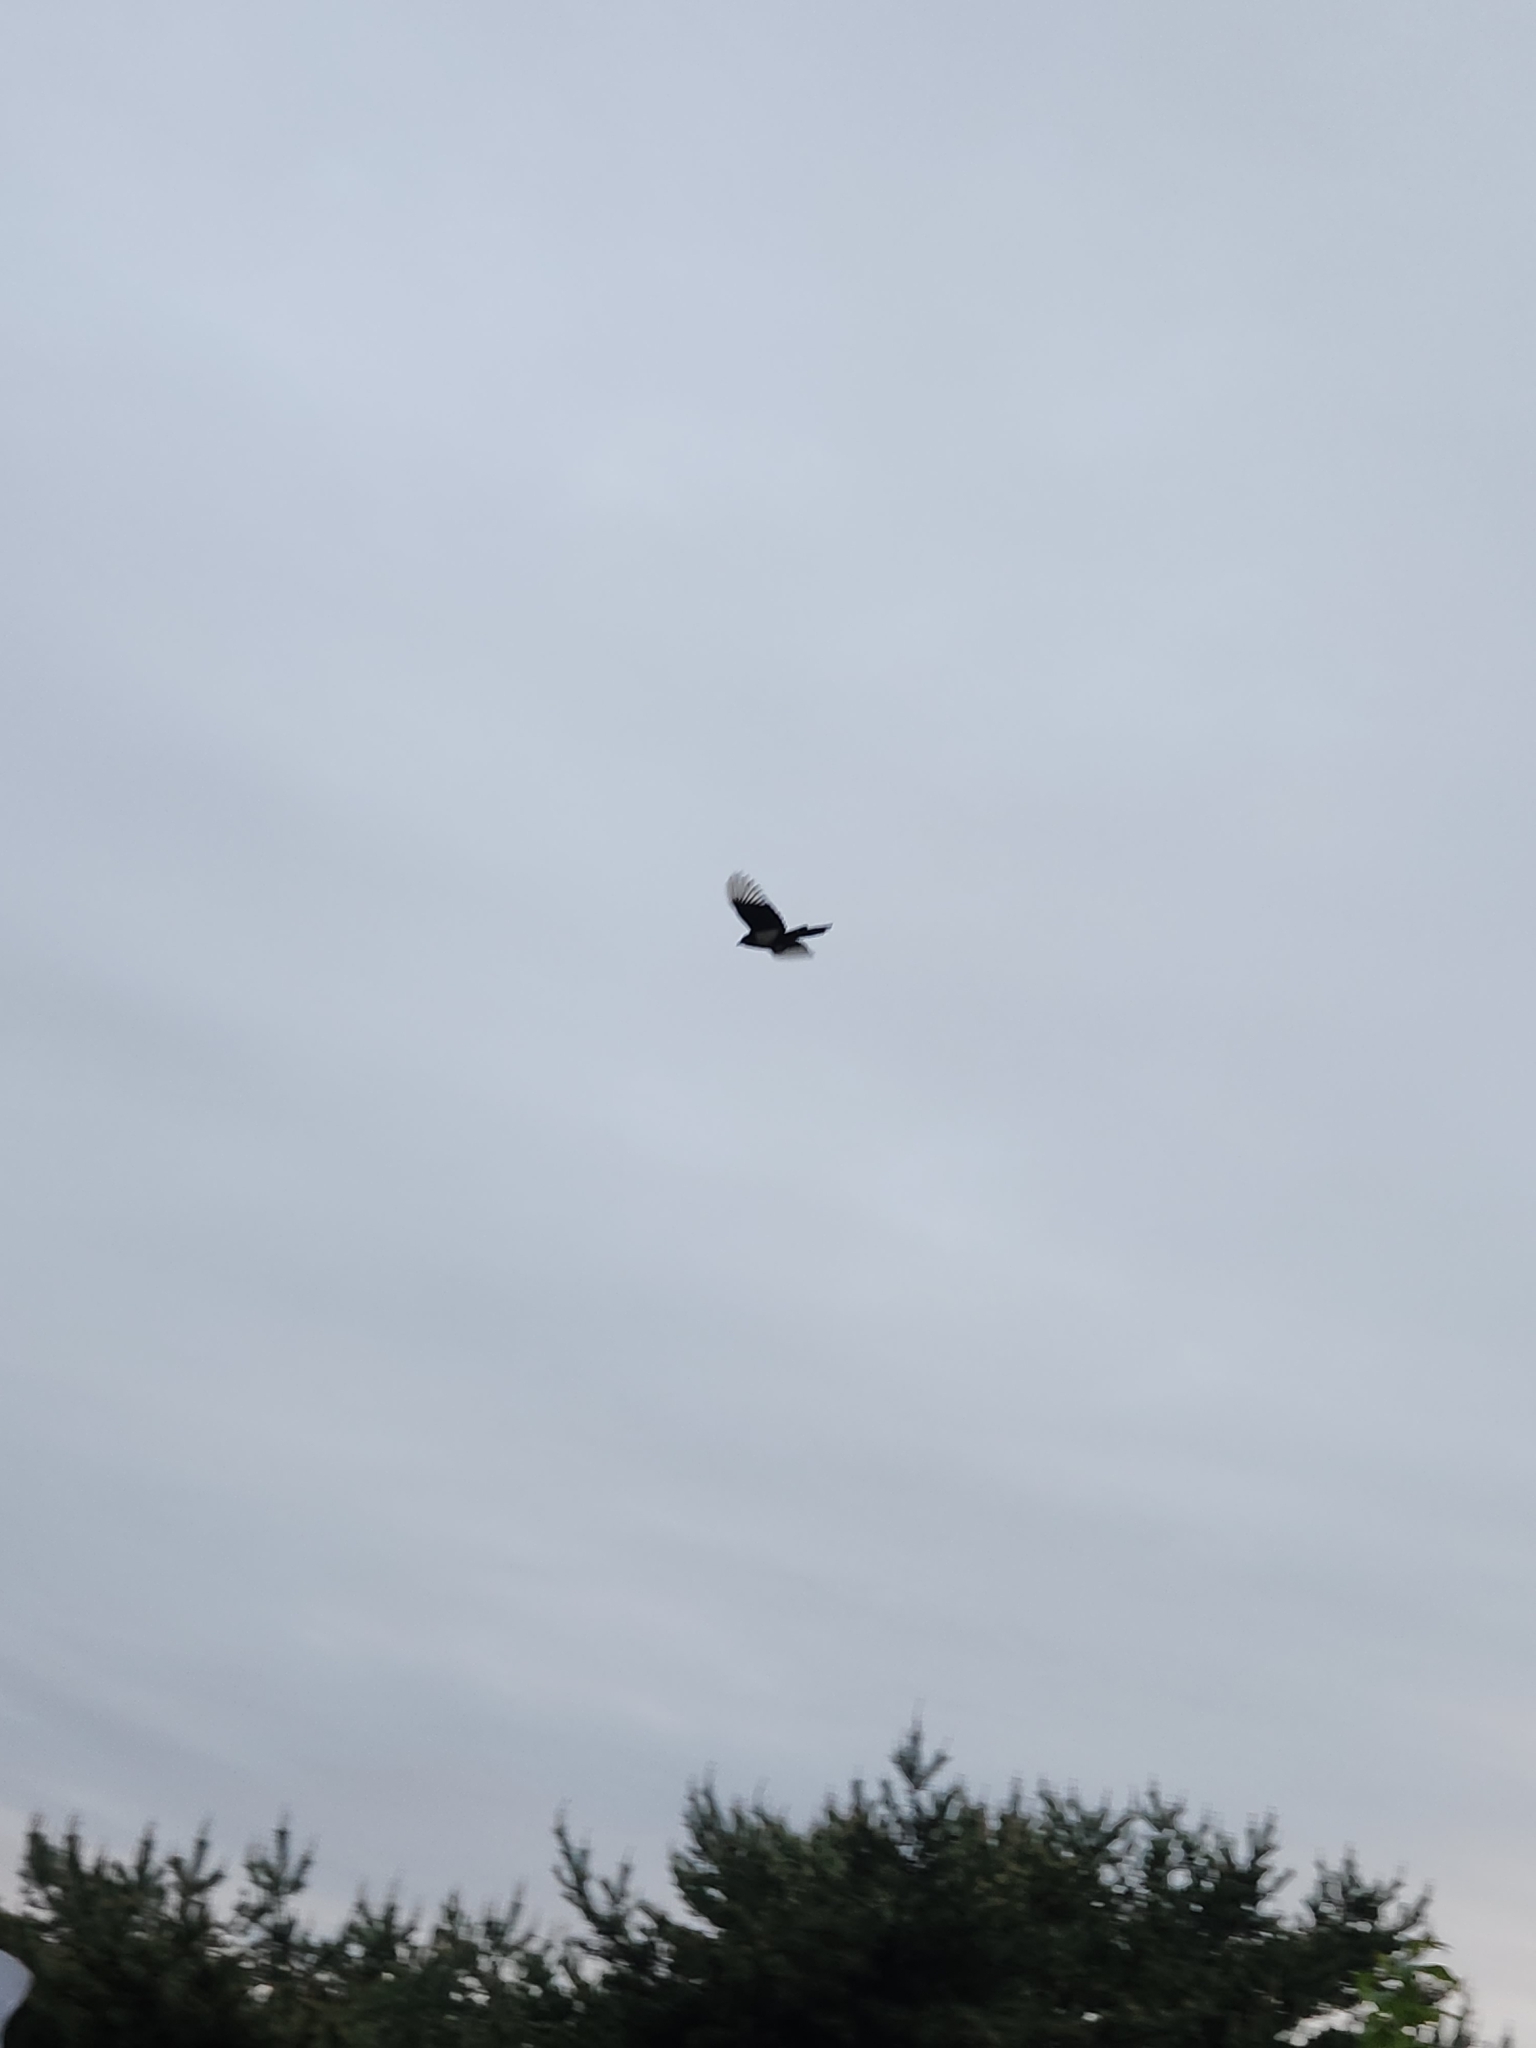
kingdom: Animalia
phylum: Chordata
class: Aves
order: Passeriformes
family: Corvidae
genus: Pica
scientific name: Pica serica
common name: Oriental magpie
